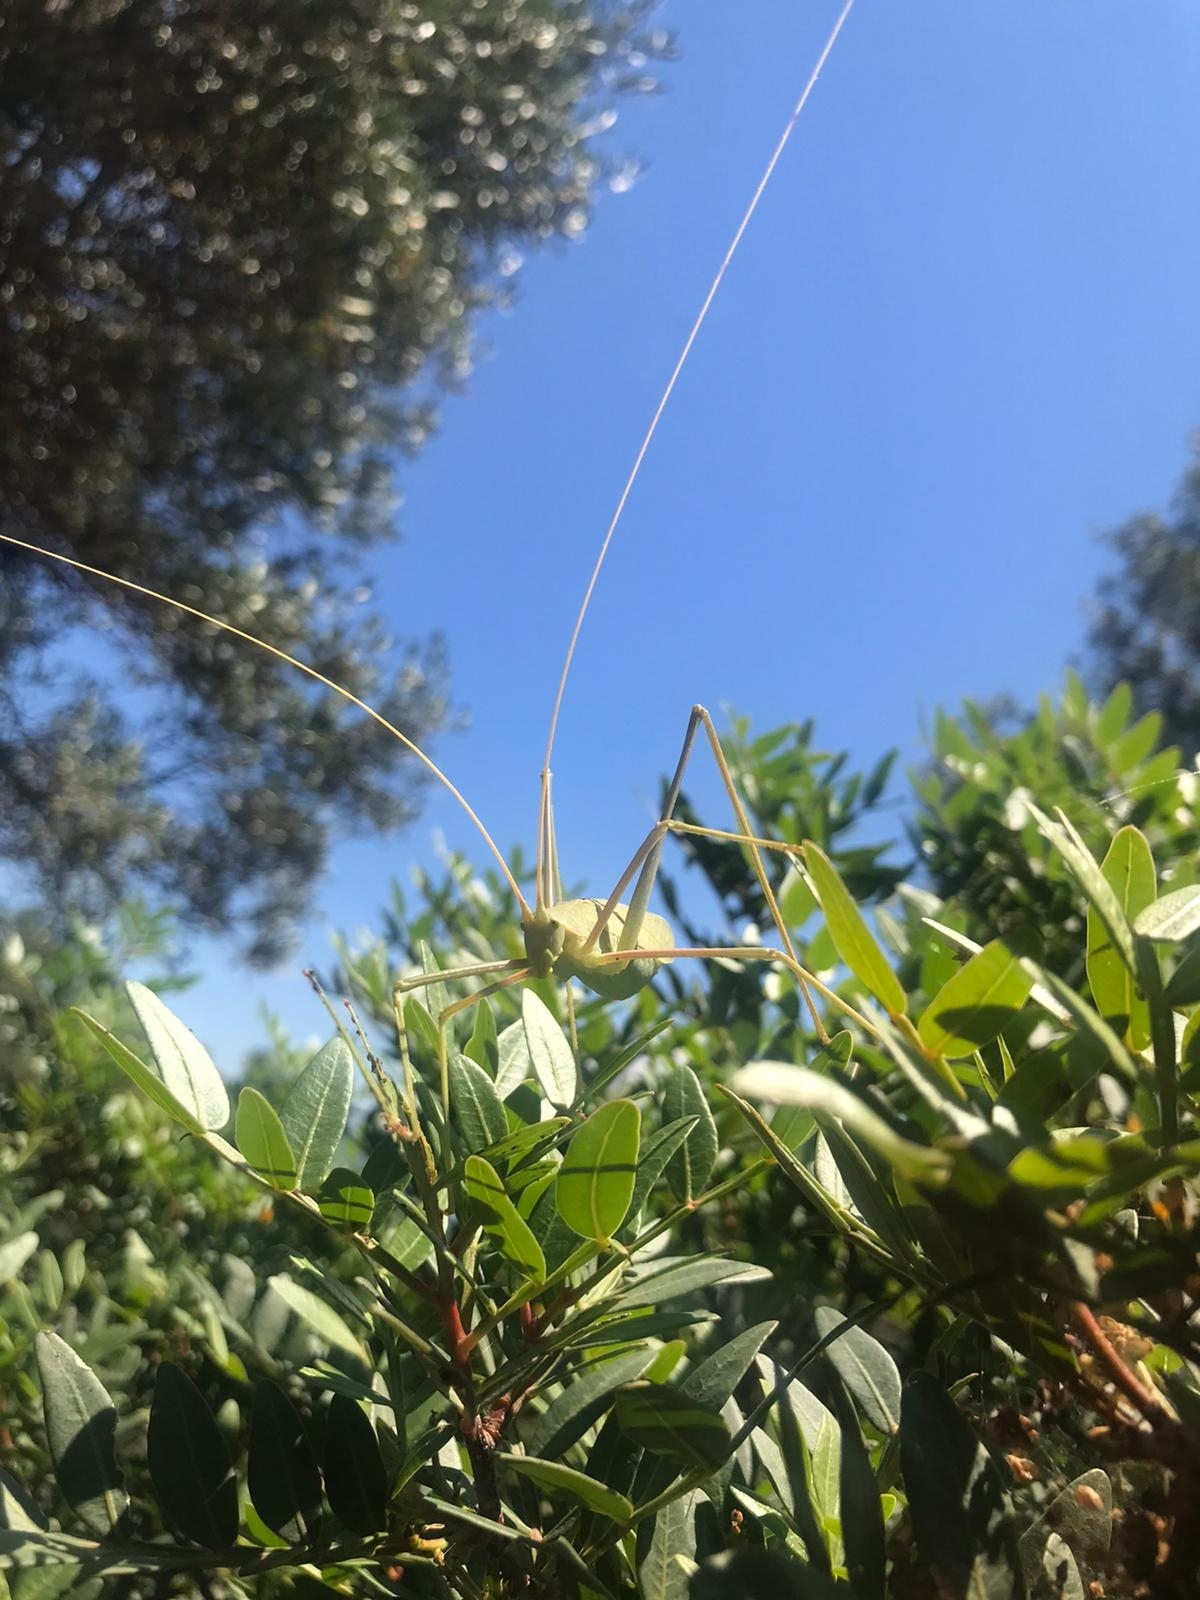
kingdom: Animalia
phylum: Arthropoda
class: Insecta
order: Orthoptera
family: Tettigoniidae
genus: Acrometopa
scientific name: Acrometopa macropoda
